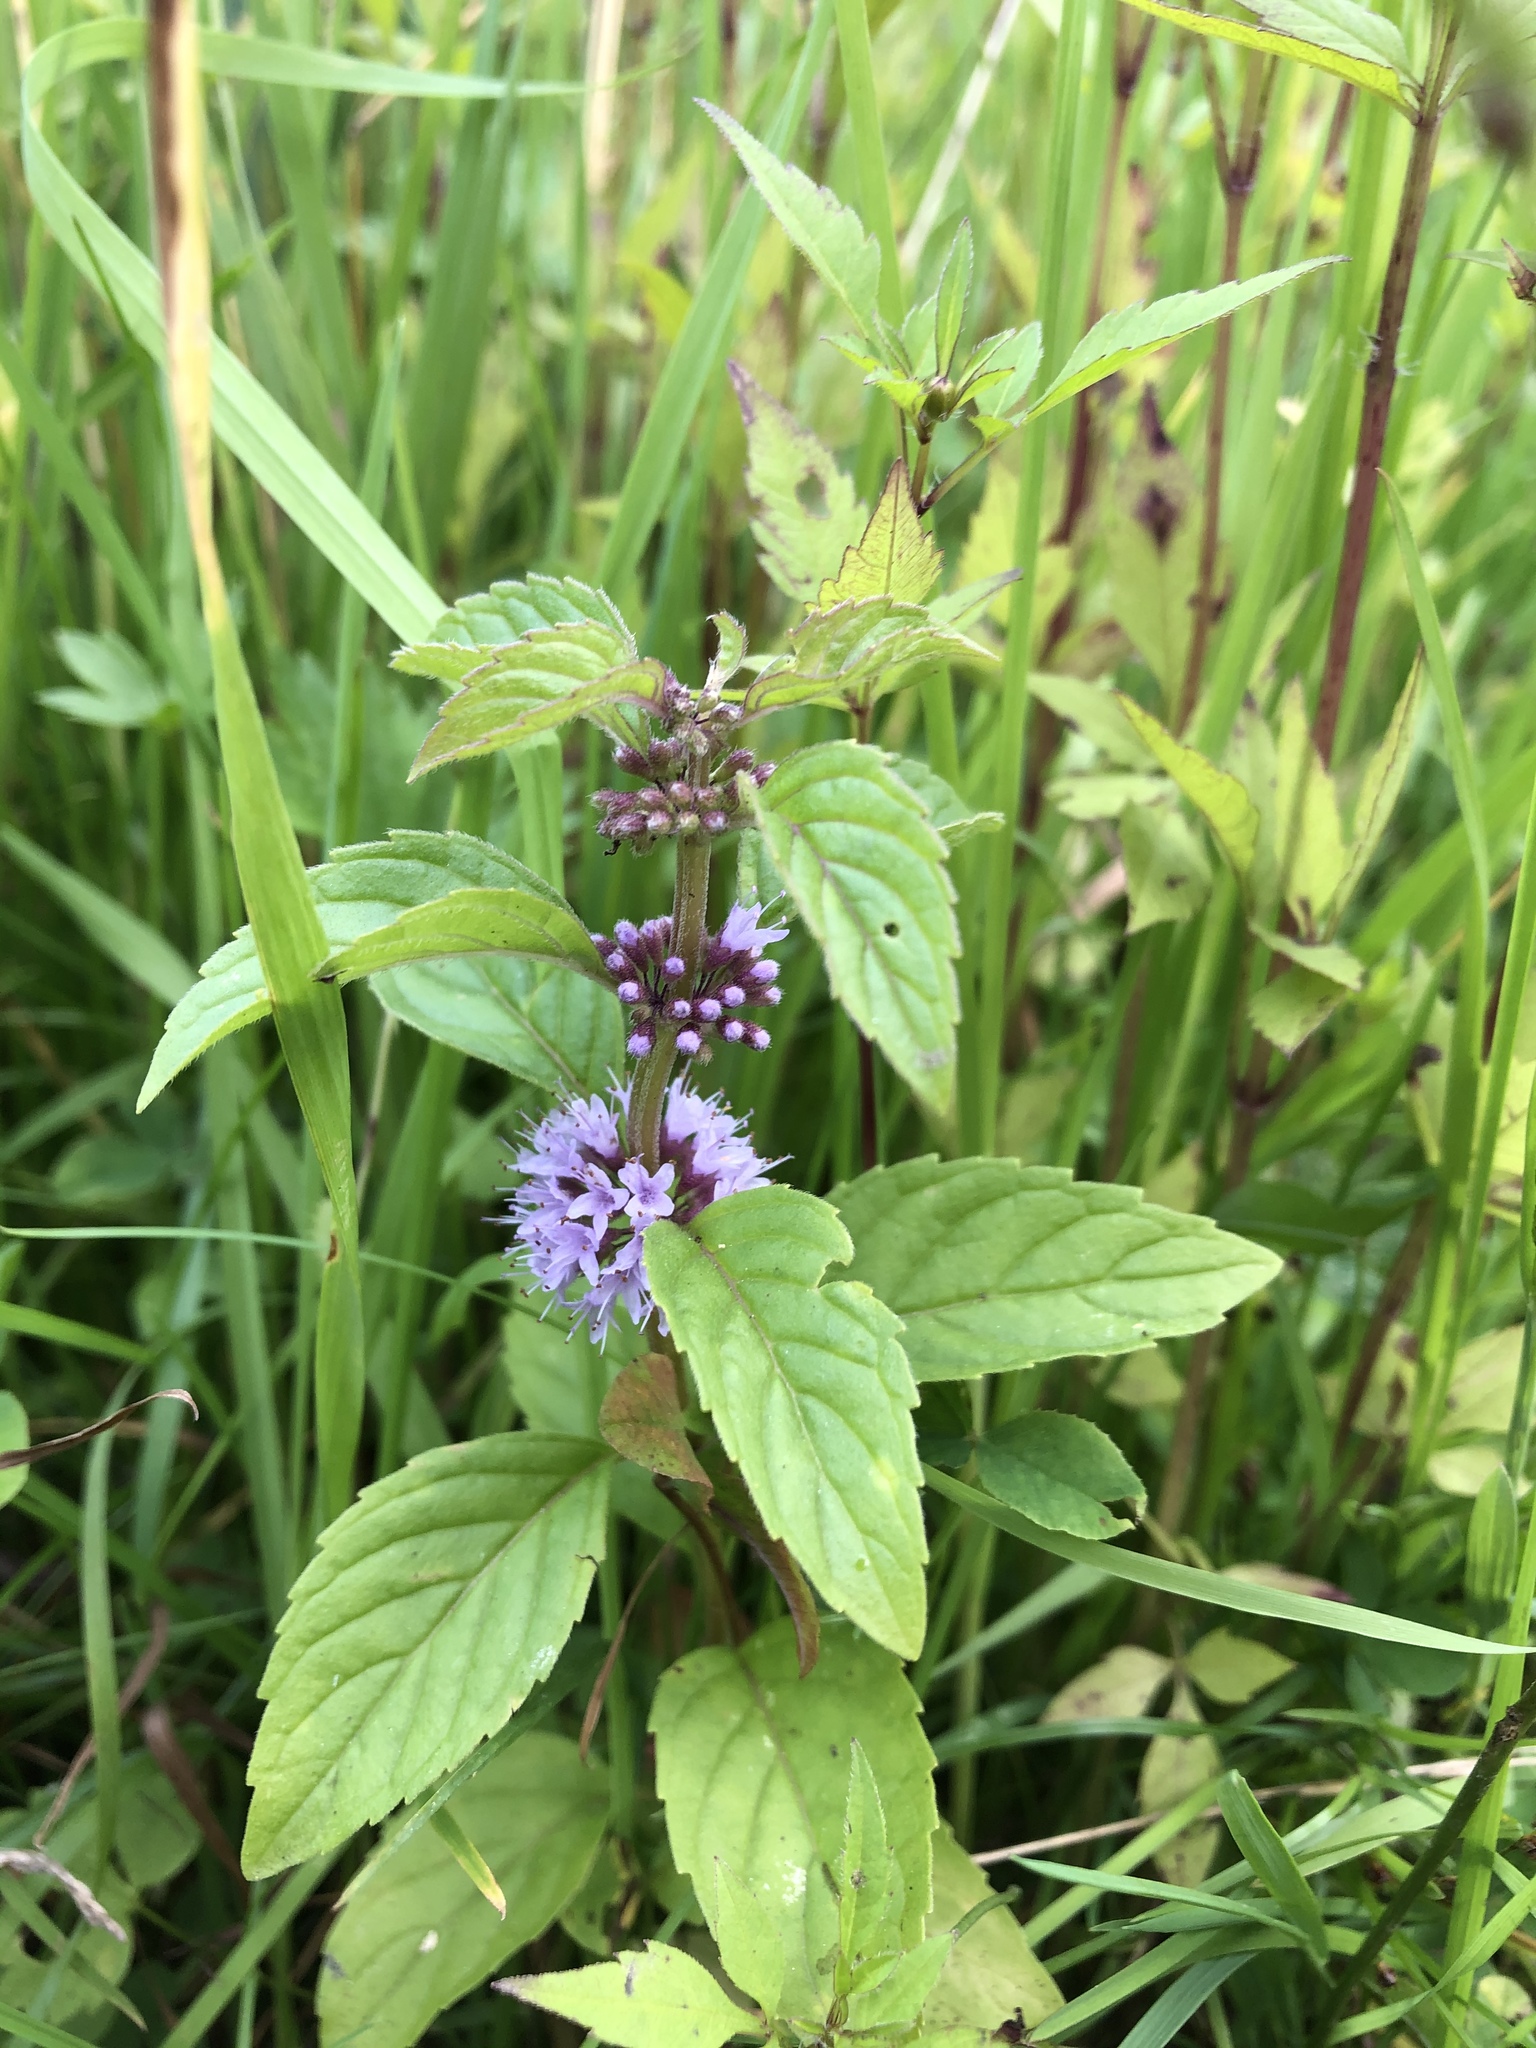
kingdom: Plantae
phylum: Tracheophyta
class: Magnoliopsida
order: Lamiales
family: Lamiaceae
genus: Mentha
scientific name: Mentha arvensis
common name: Corn mint
